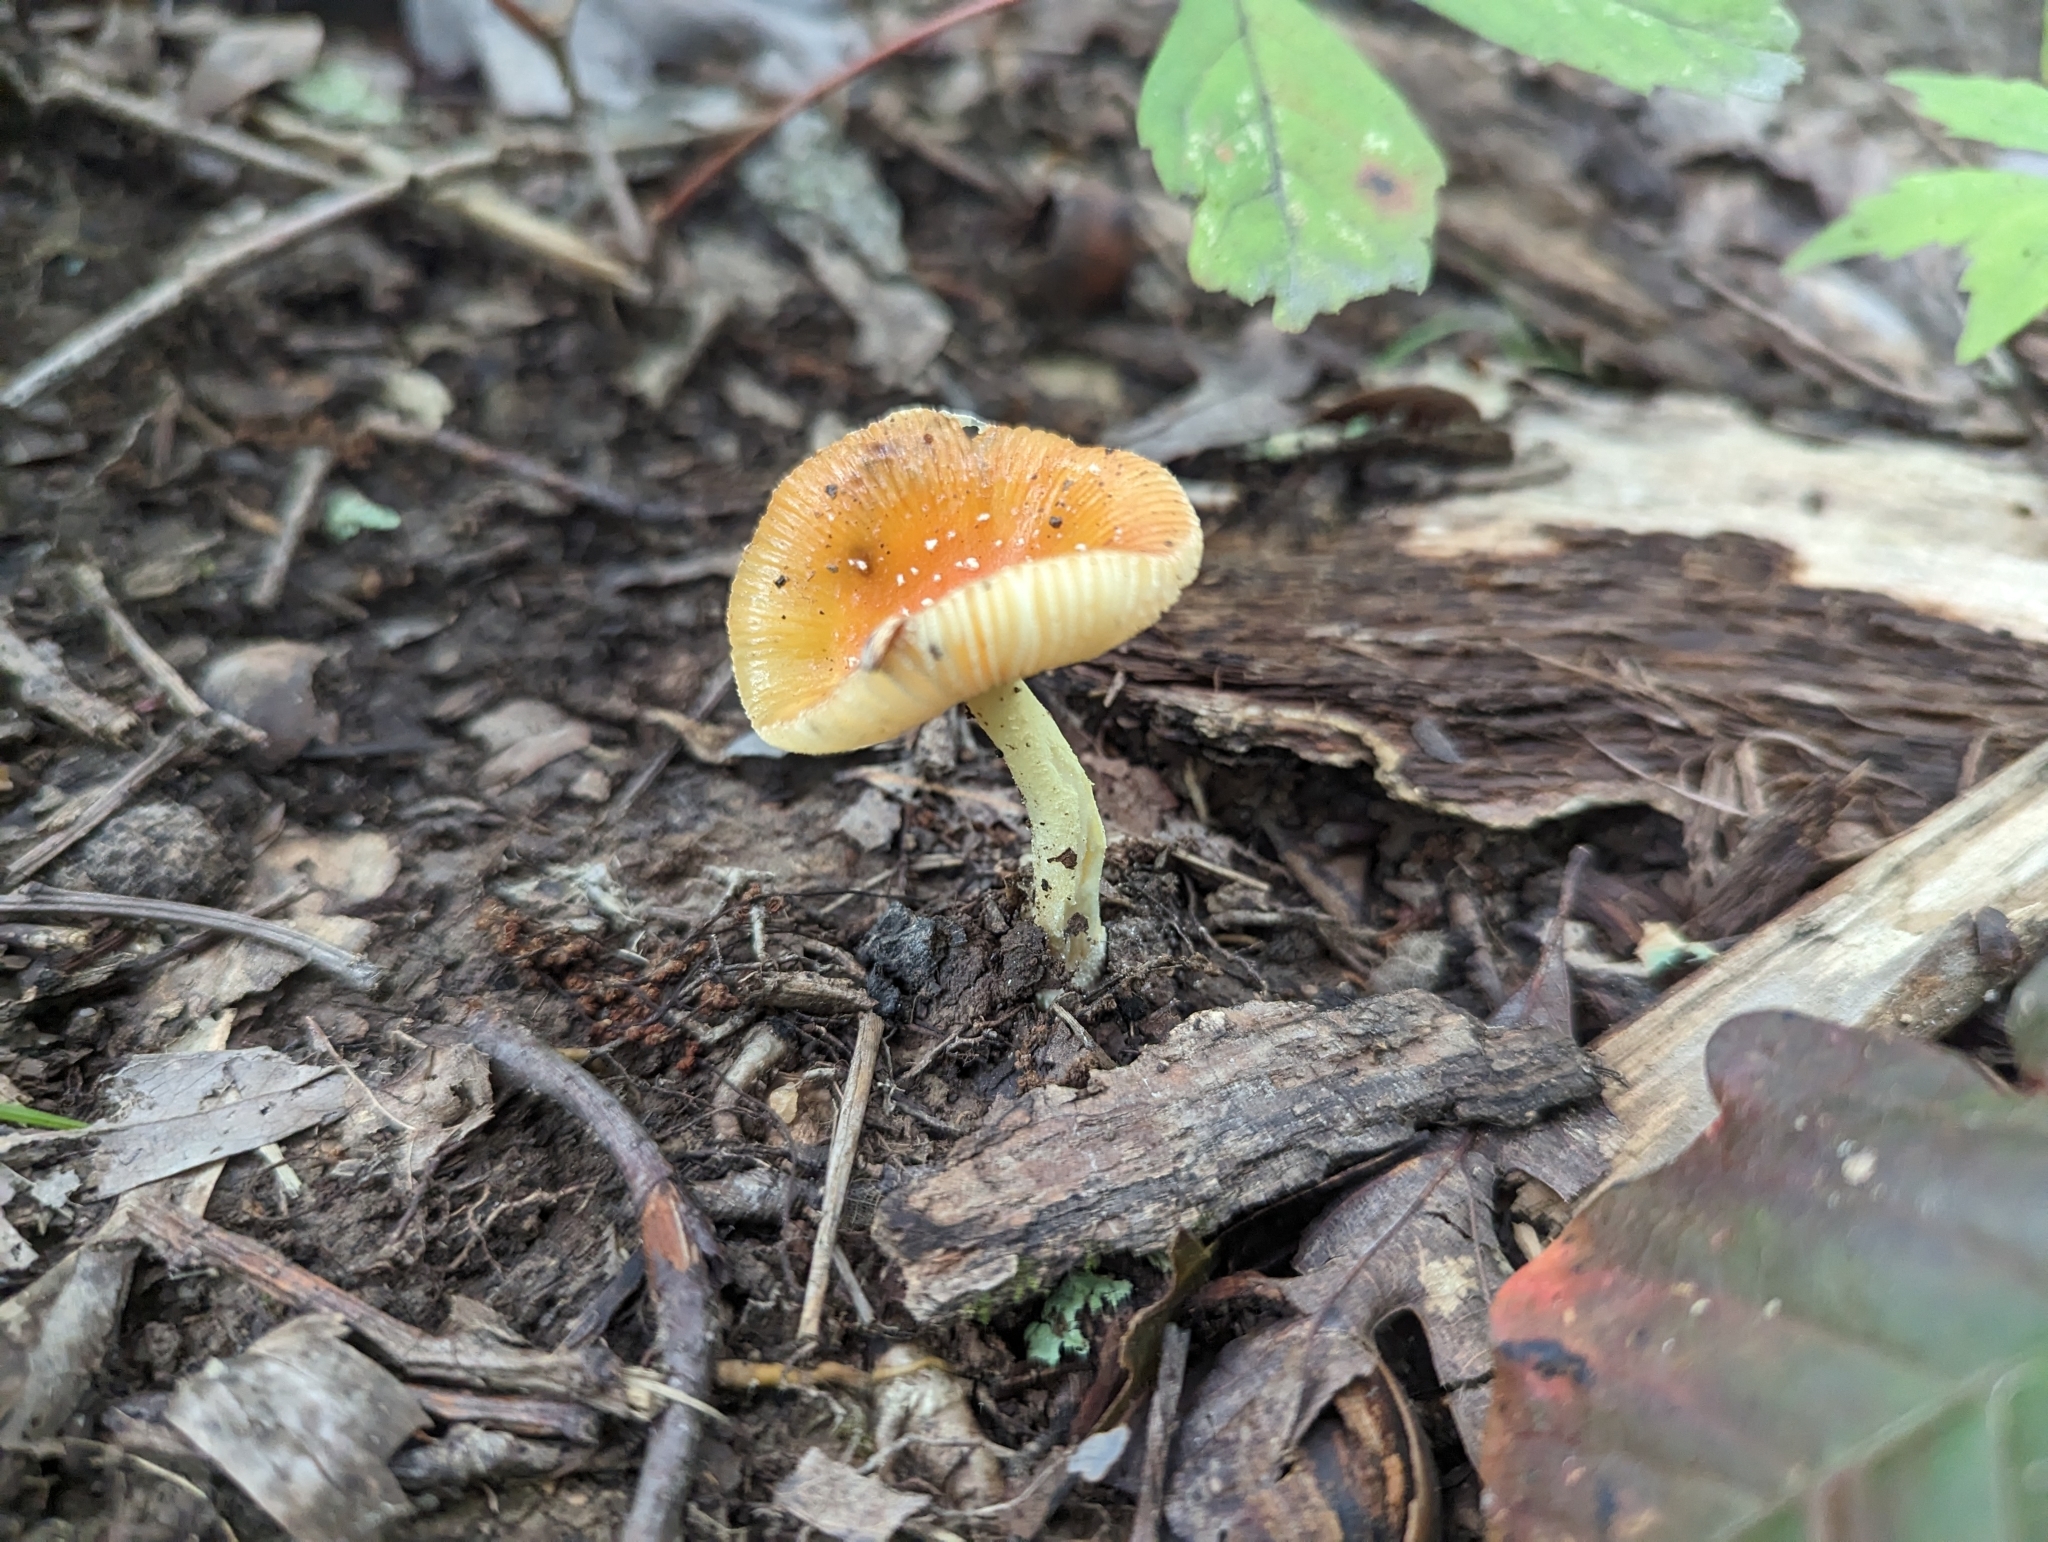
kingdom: Fungi
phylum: Basidiomycota
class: Agaricomycetes
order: Agaricales
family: Amanitaceae
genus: Amanita
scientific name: Amanita parcivolvata
